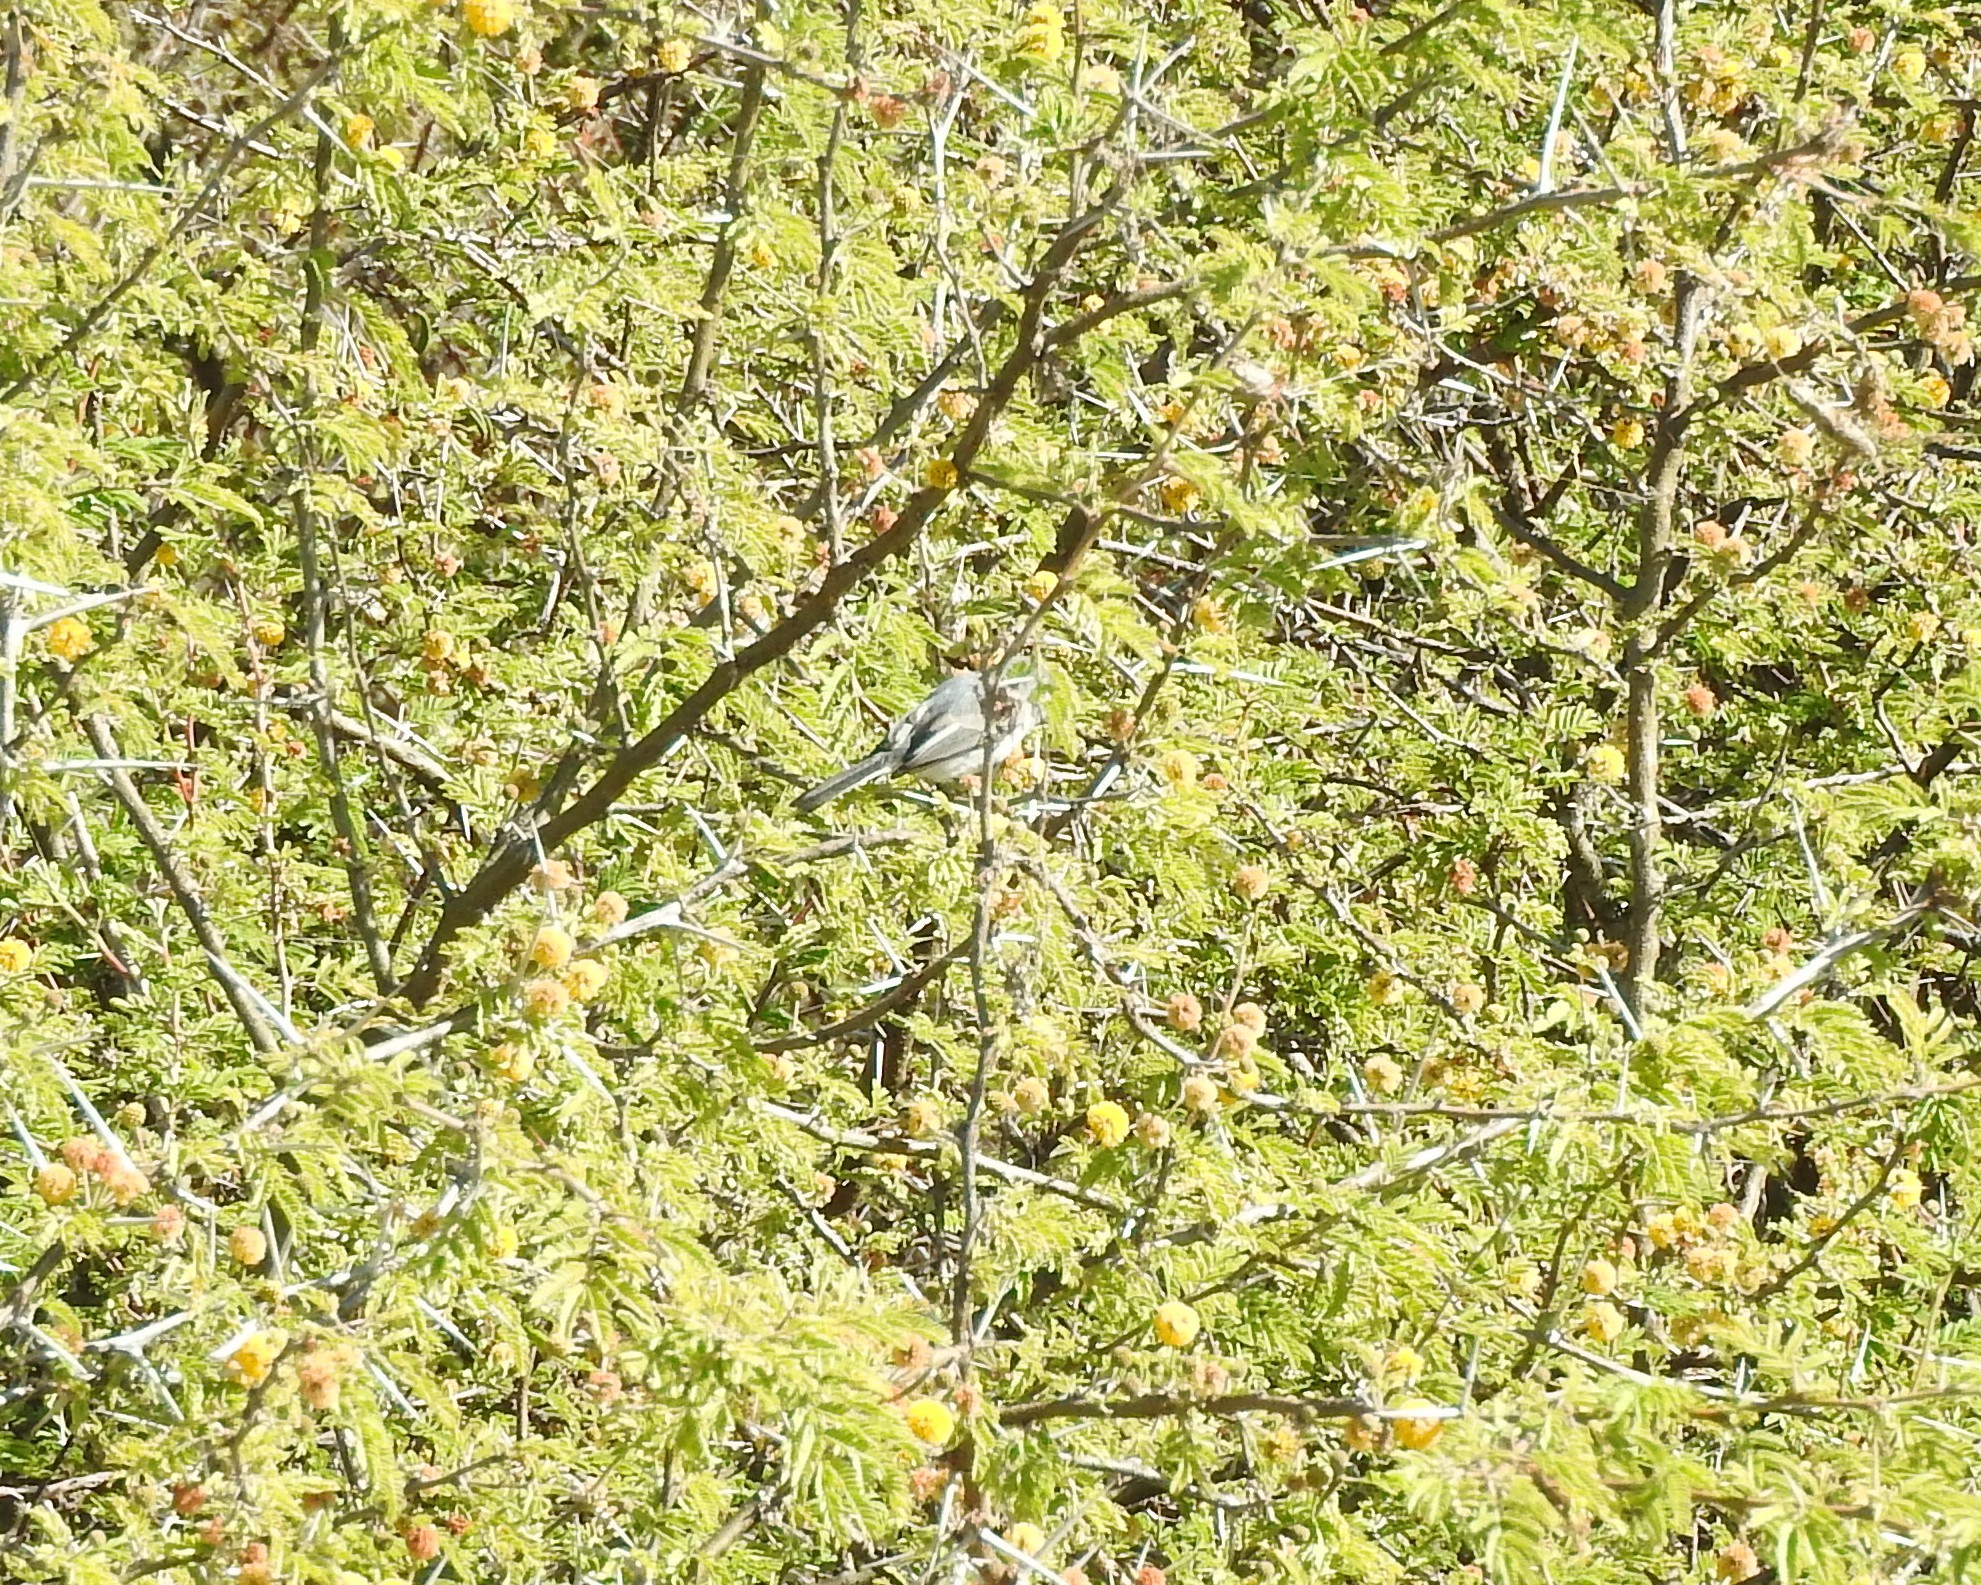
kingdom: Animalia
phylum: Chordata
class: Aves
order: Passeriformes
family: Polioptilidae
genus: Polioptila
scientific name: Polioptila caerulea
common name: Blue-gray gnatcatcher
